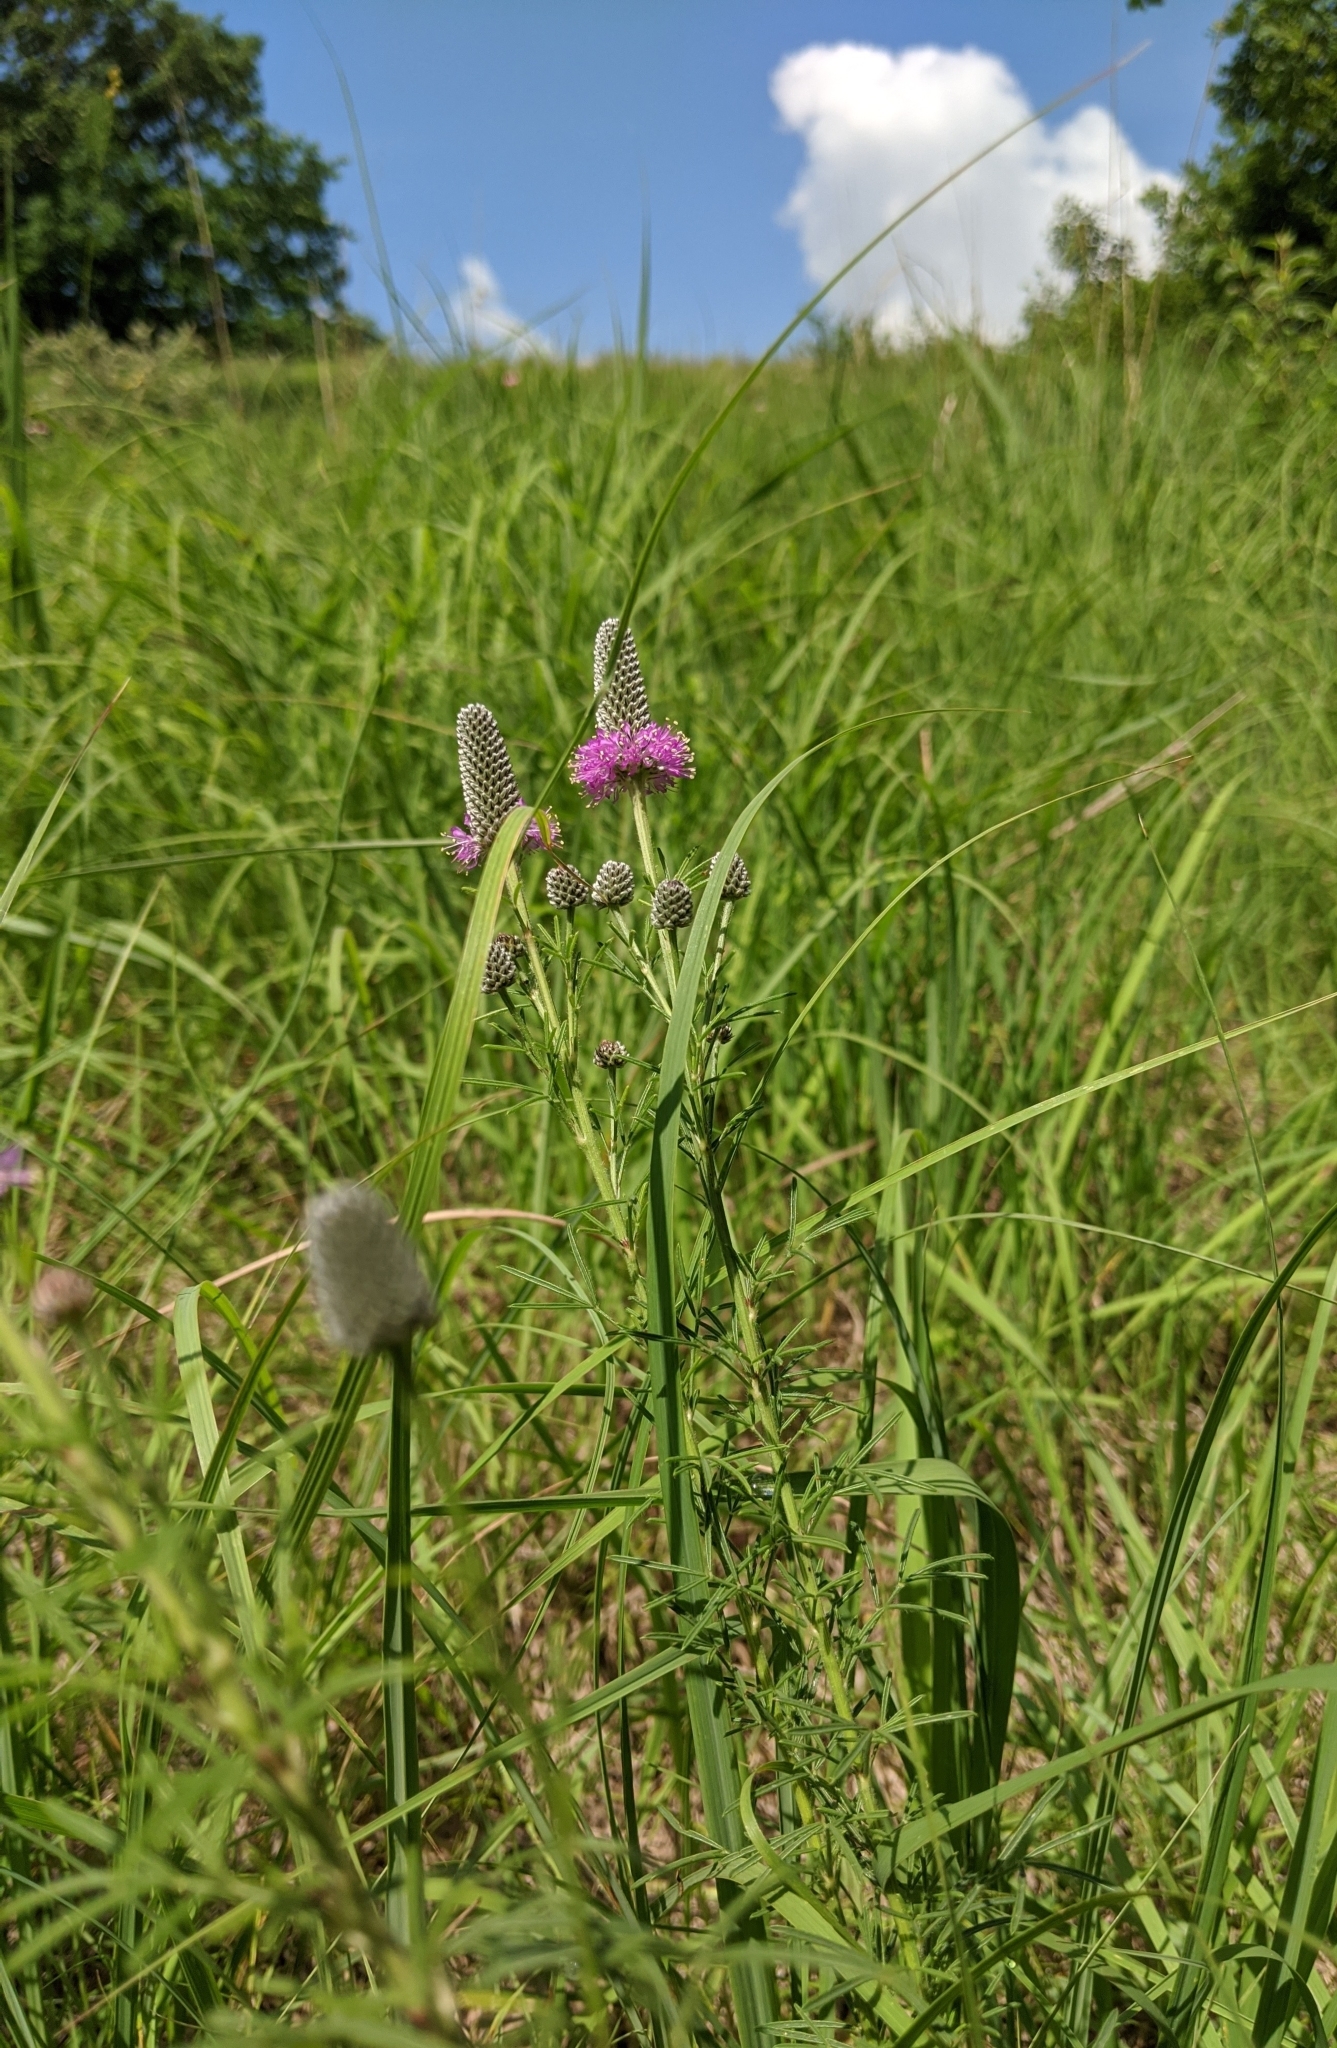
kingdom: Plantae
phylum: Tracheophyta
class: Magnoliopsida
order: Fabales
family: Fabaceae
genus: Dalea
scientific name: Dalea purpurea
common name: Purple prairie-clover
